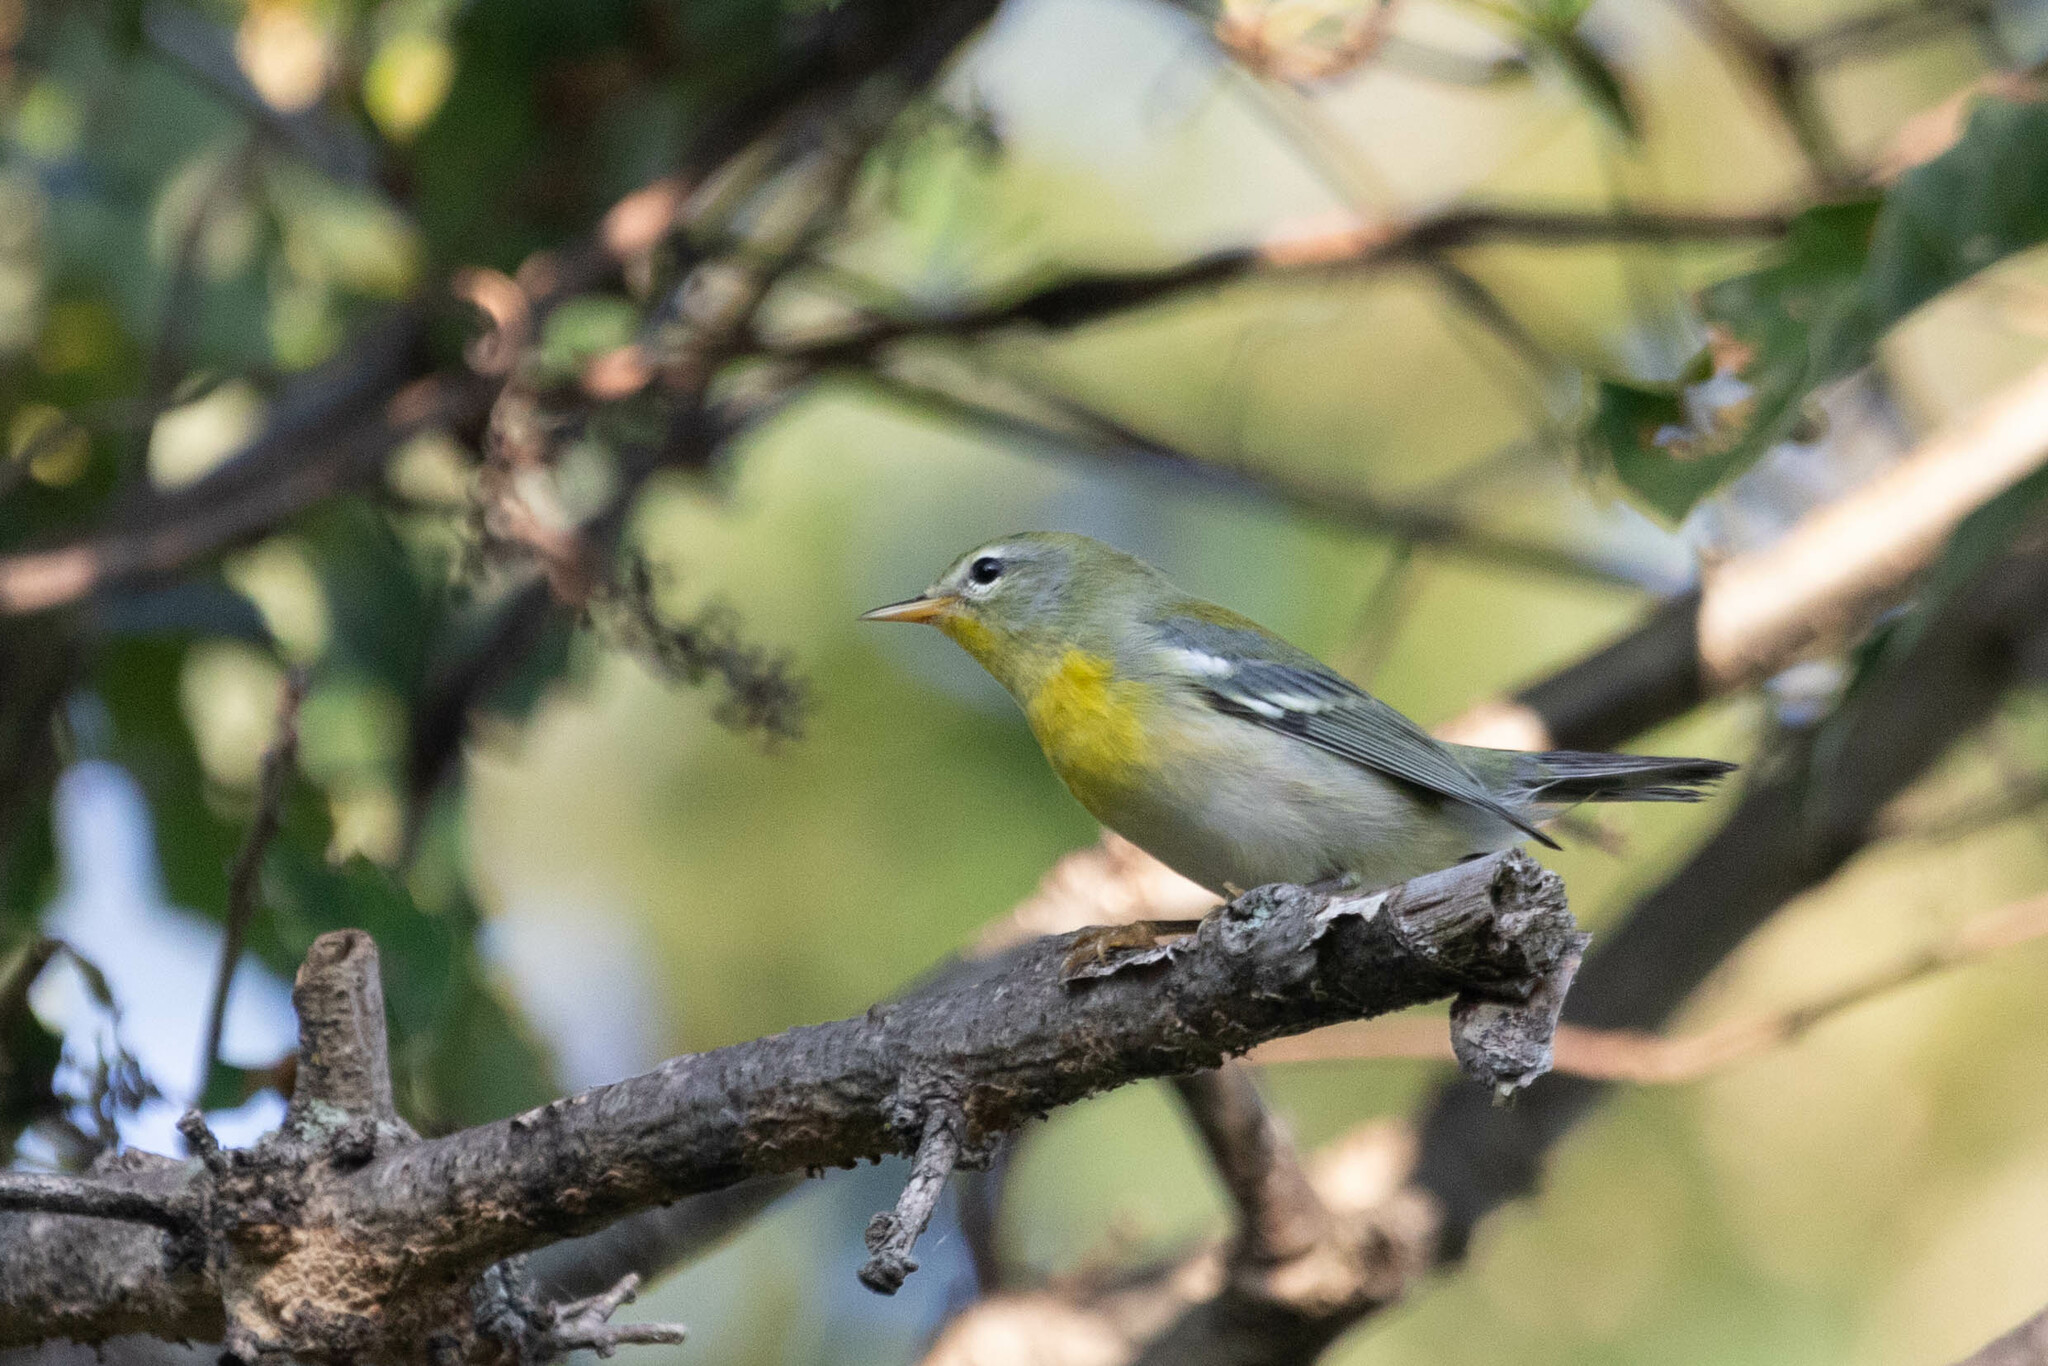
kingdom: Animalia
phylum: Chordata
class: Aves
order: Passeriformes
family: Parulidae
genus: Setophaga
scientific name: Setophaga americana
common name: Northern parula
